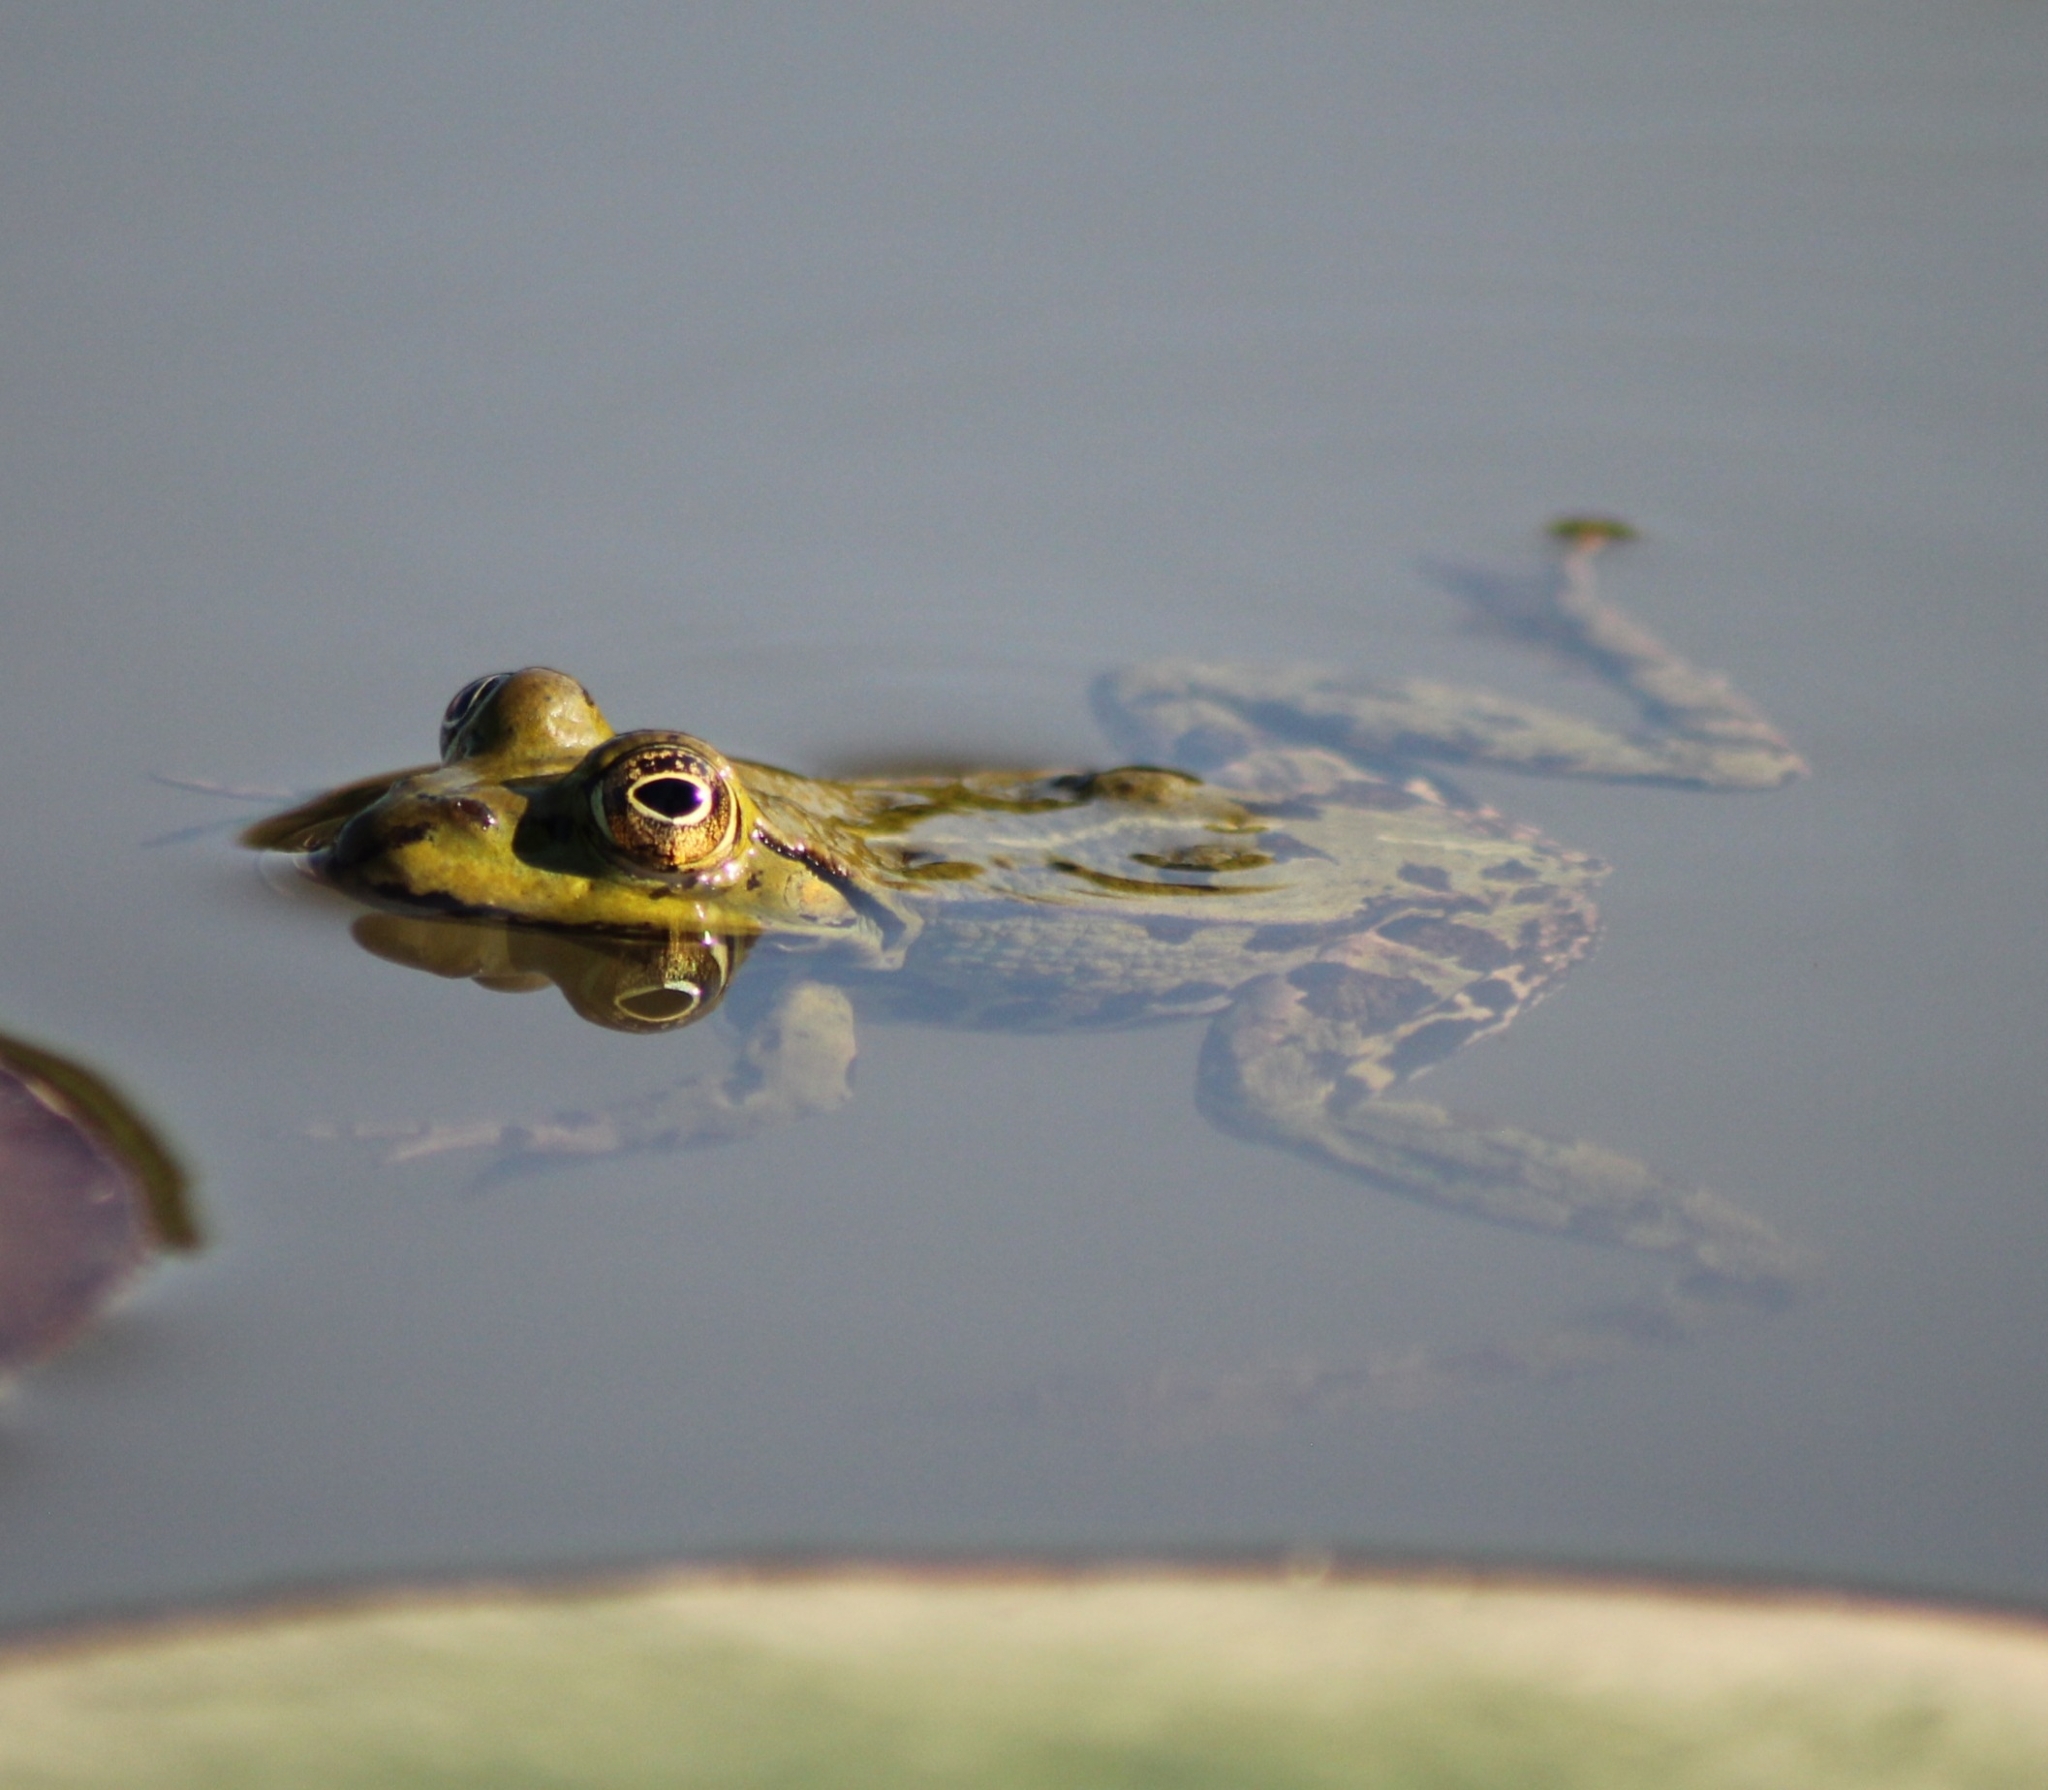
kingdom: Animalia
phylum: Chordata
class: Amphibia
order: Anura
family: Ranidae
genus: Pelophylax
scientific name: Pelophylax
